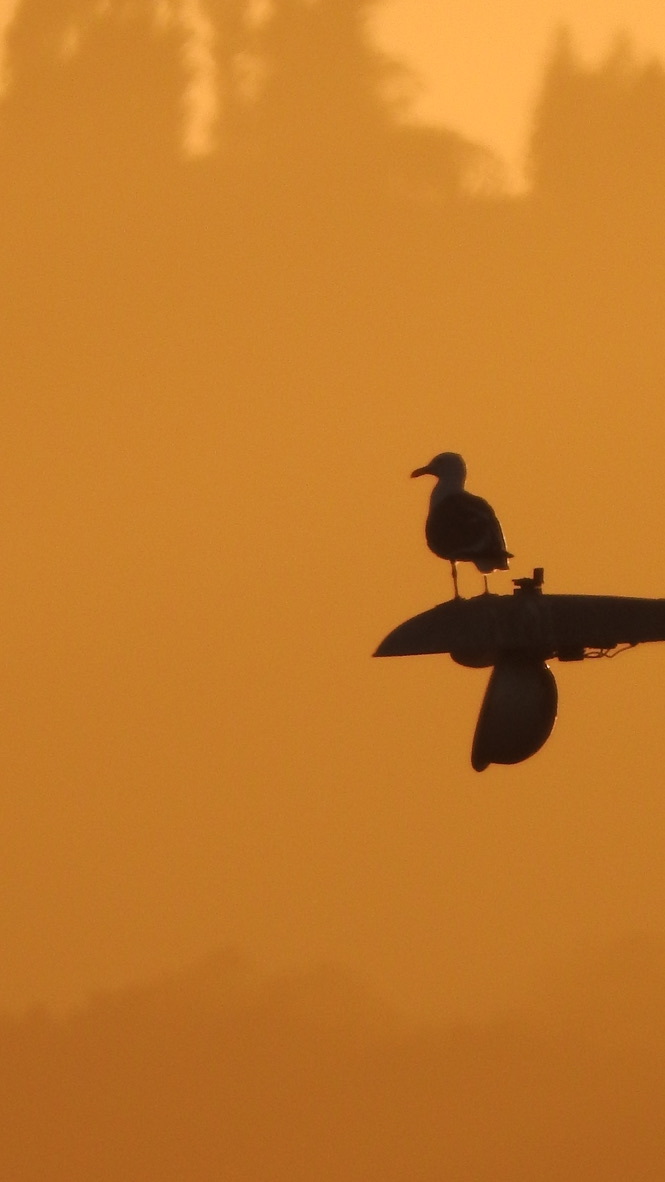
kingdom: Animalia
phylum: Chordata
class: Aves
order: Charadriiformes
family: Laridae
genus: Larus
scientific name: Larus
